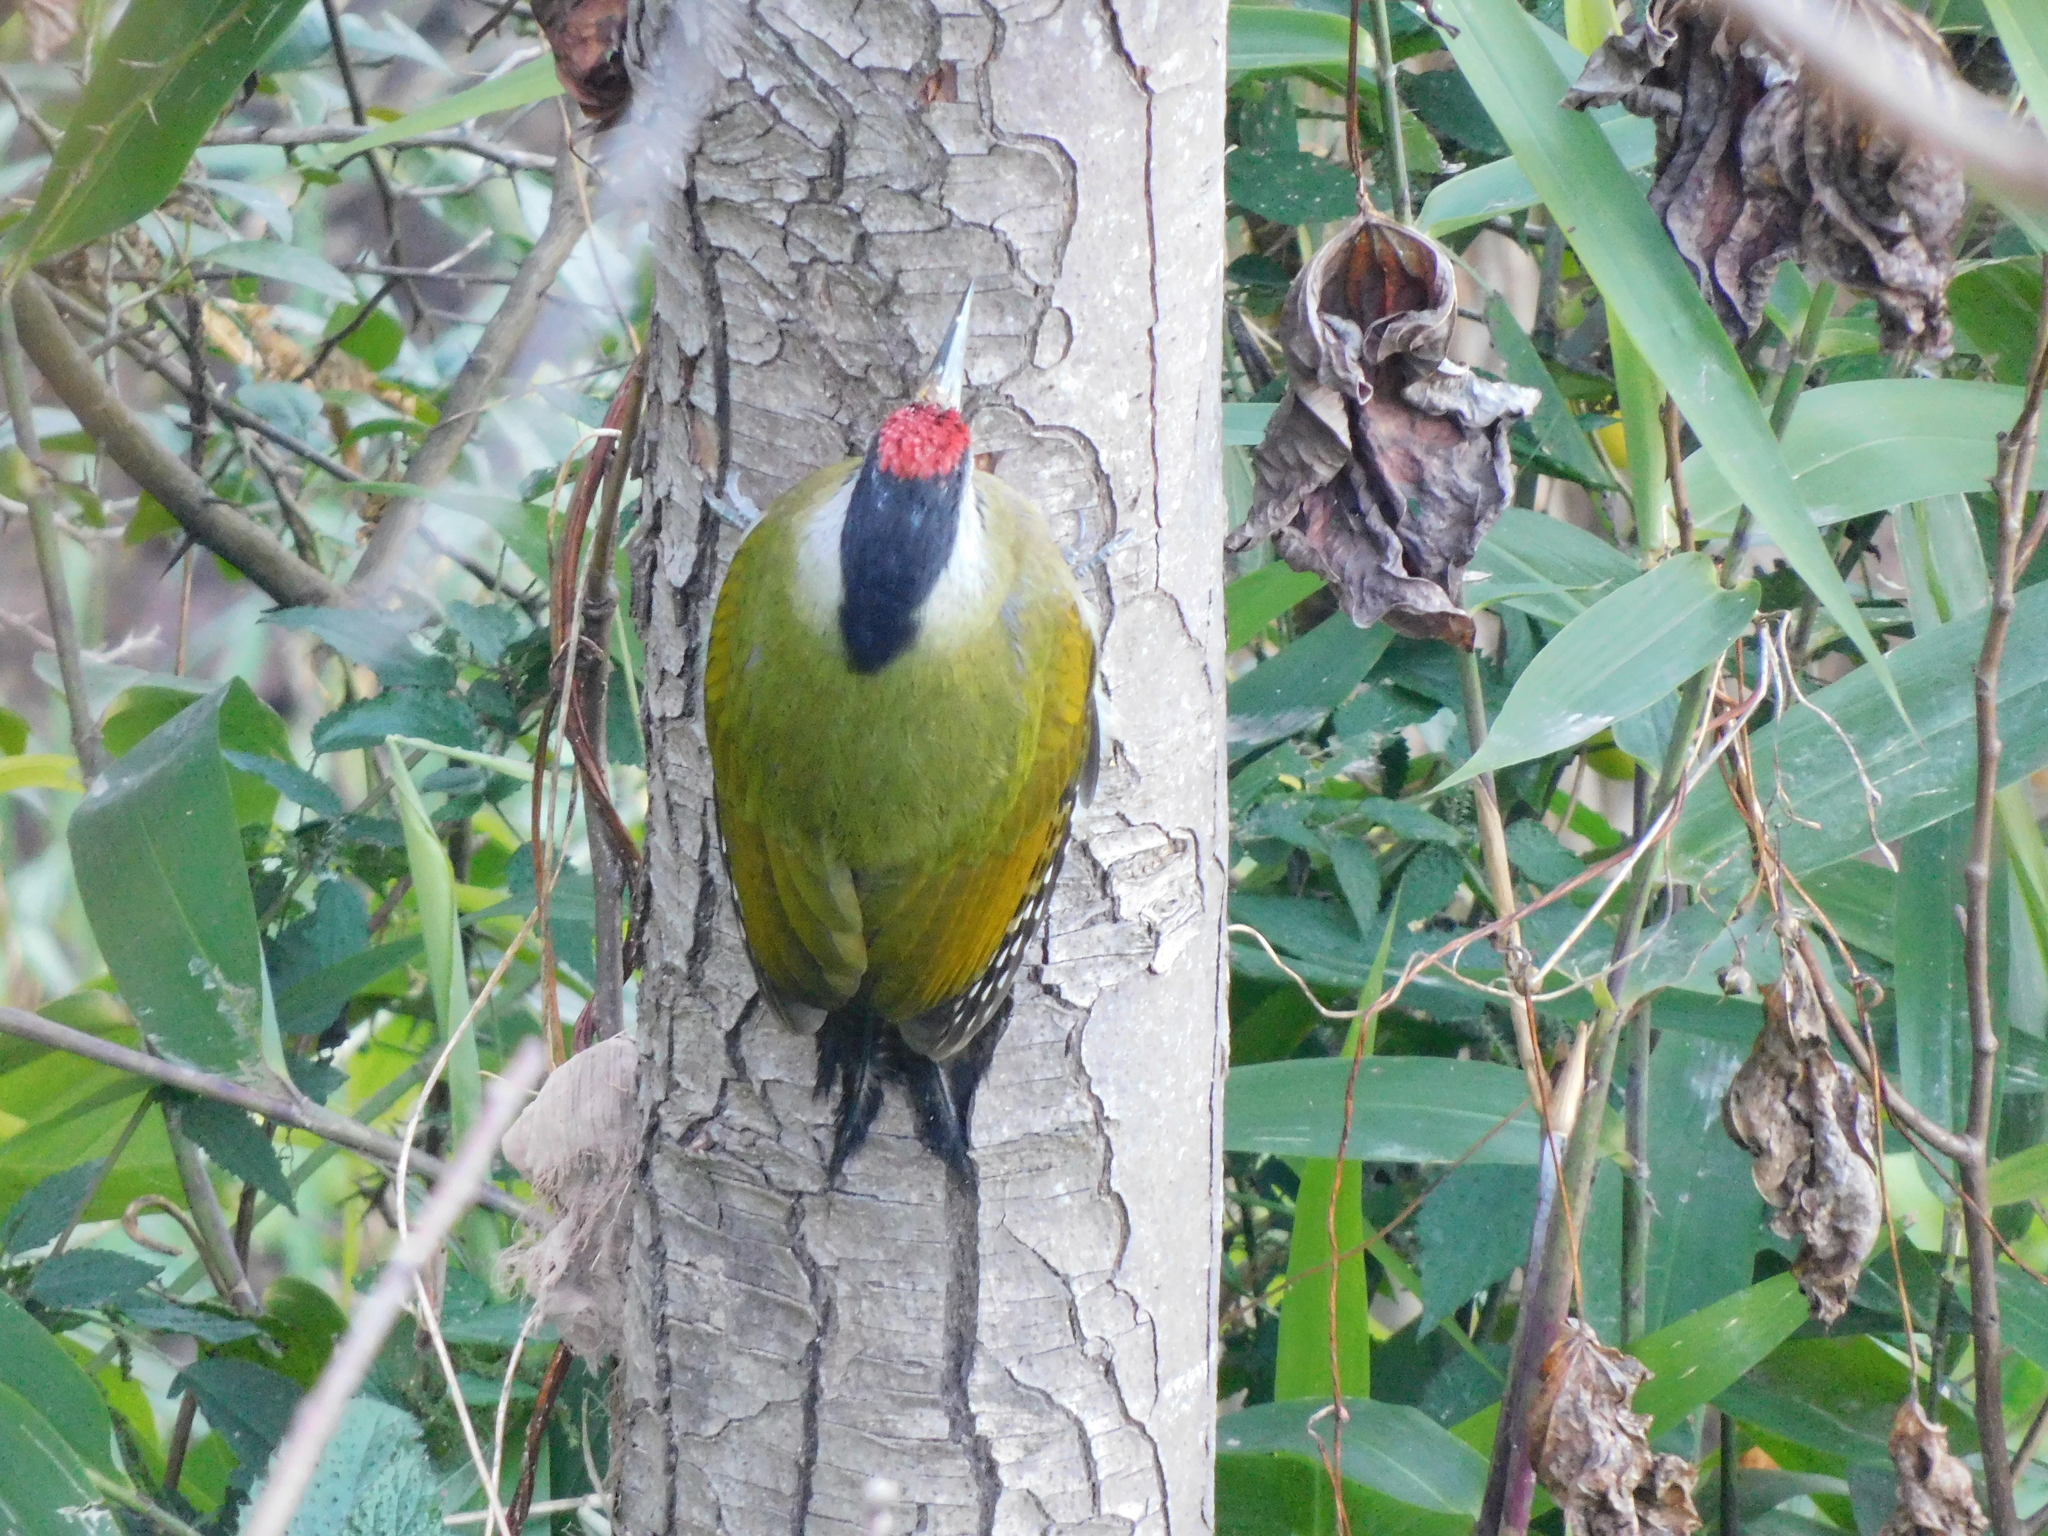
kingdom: Animalia
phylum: Chordata
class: Aves
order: Piciformes
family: Picidae
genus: Picus
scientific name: Picus canus
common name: Grey-headed woodpecker
